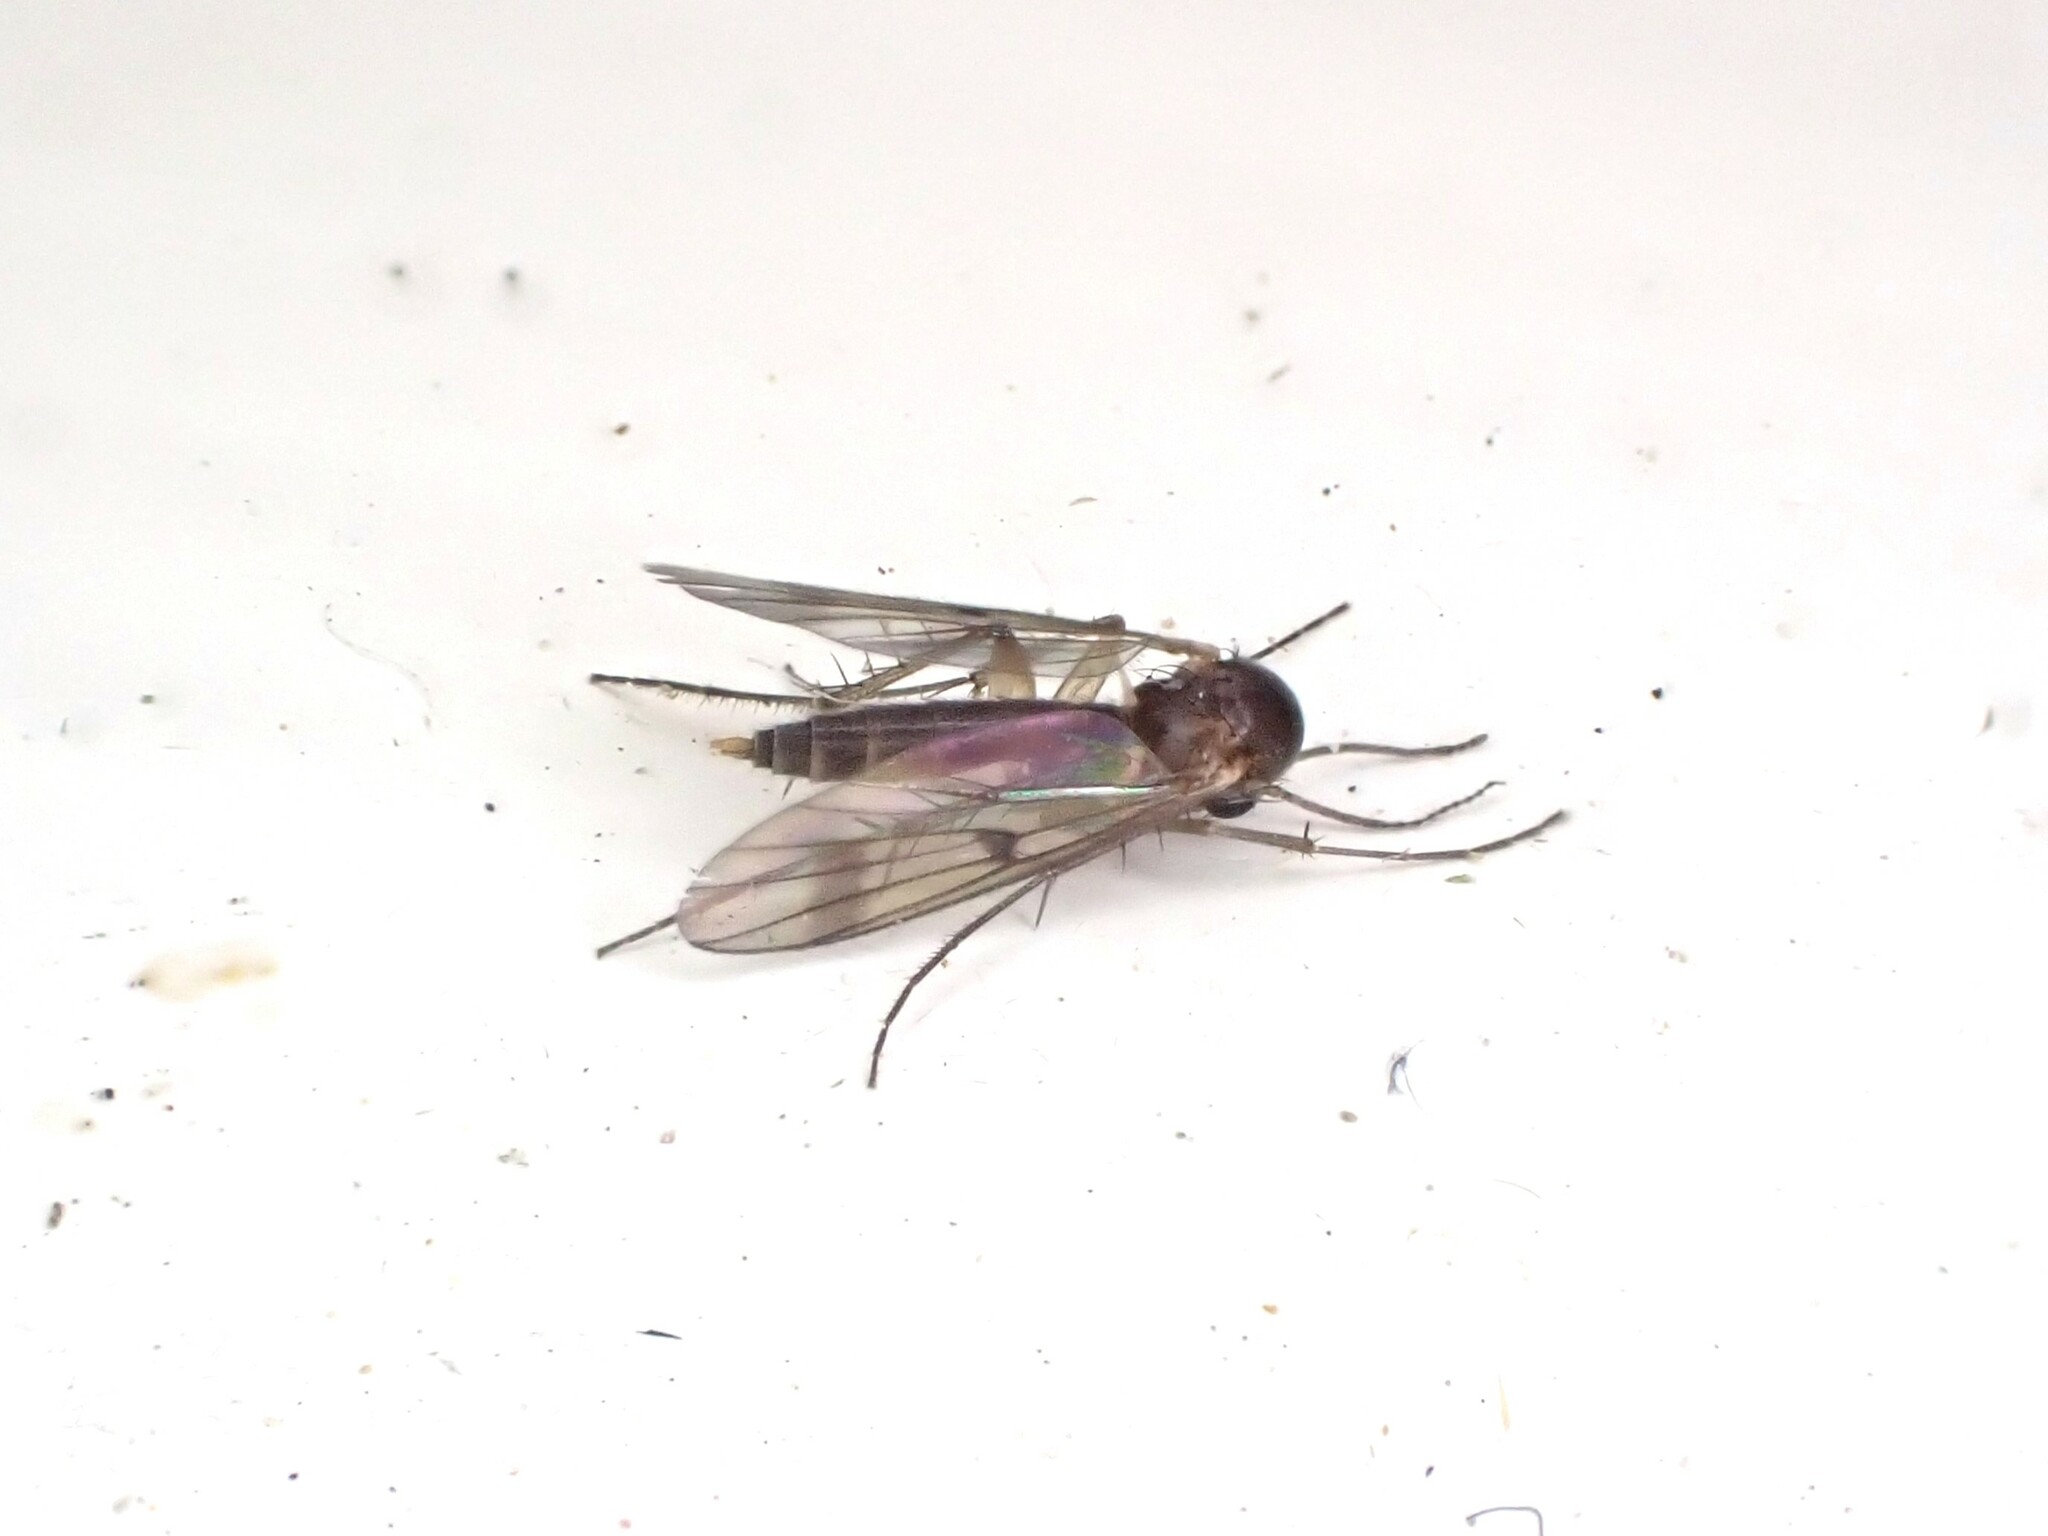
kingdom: Animalia
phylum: Arthropoda
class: Insecta
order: Diptera
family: Mycetophilidae
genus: Mycetophila
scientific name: Mycetophila vulgaris
